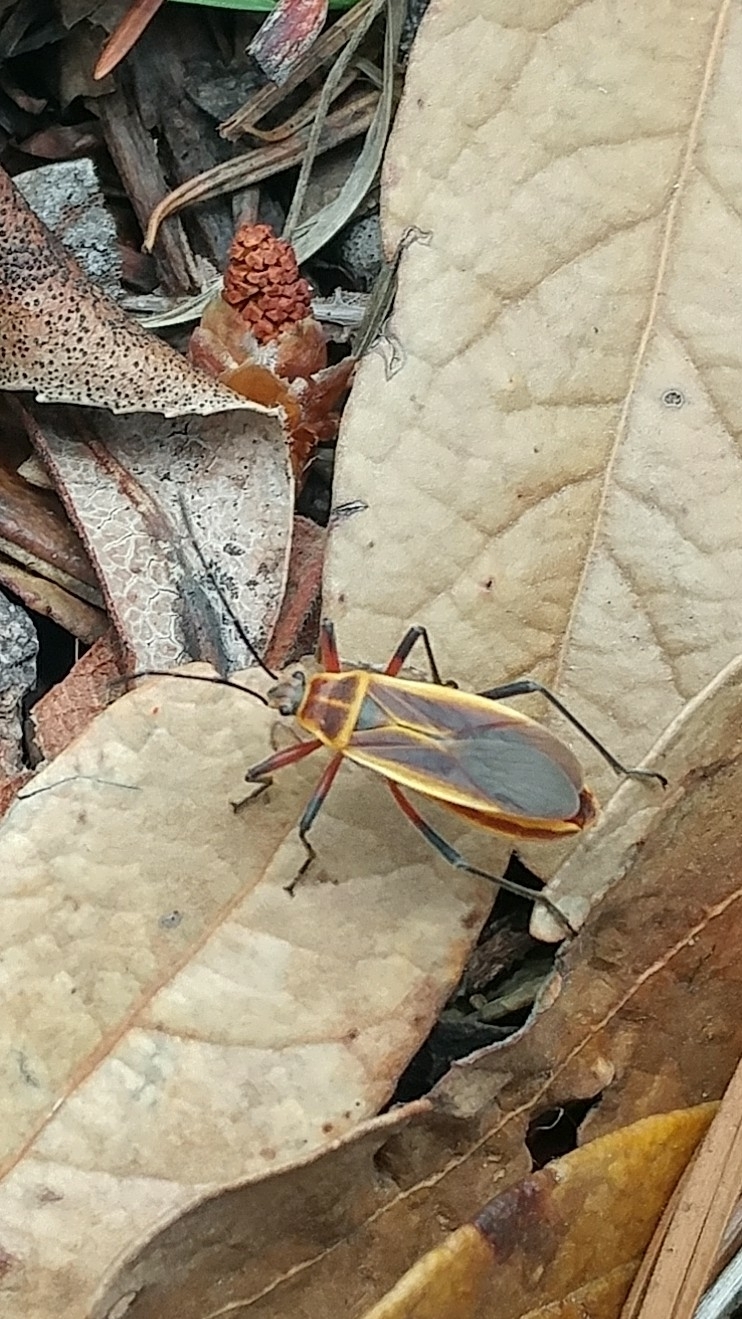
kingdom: Animalia
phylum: Arthropoda
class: Insecta
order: Hemiptera
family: Largidae
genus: Stenomacra
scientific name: Stenomacra marginella
